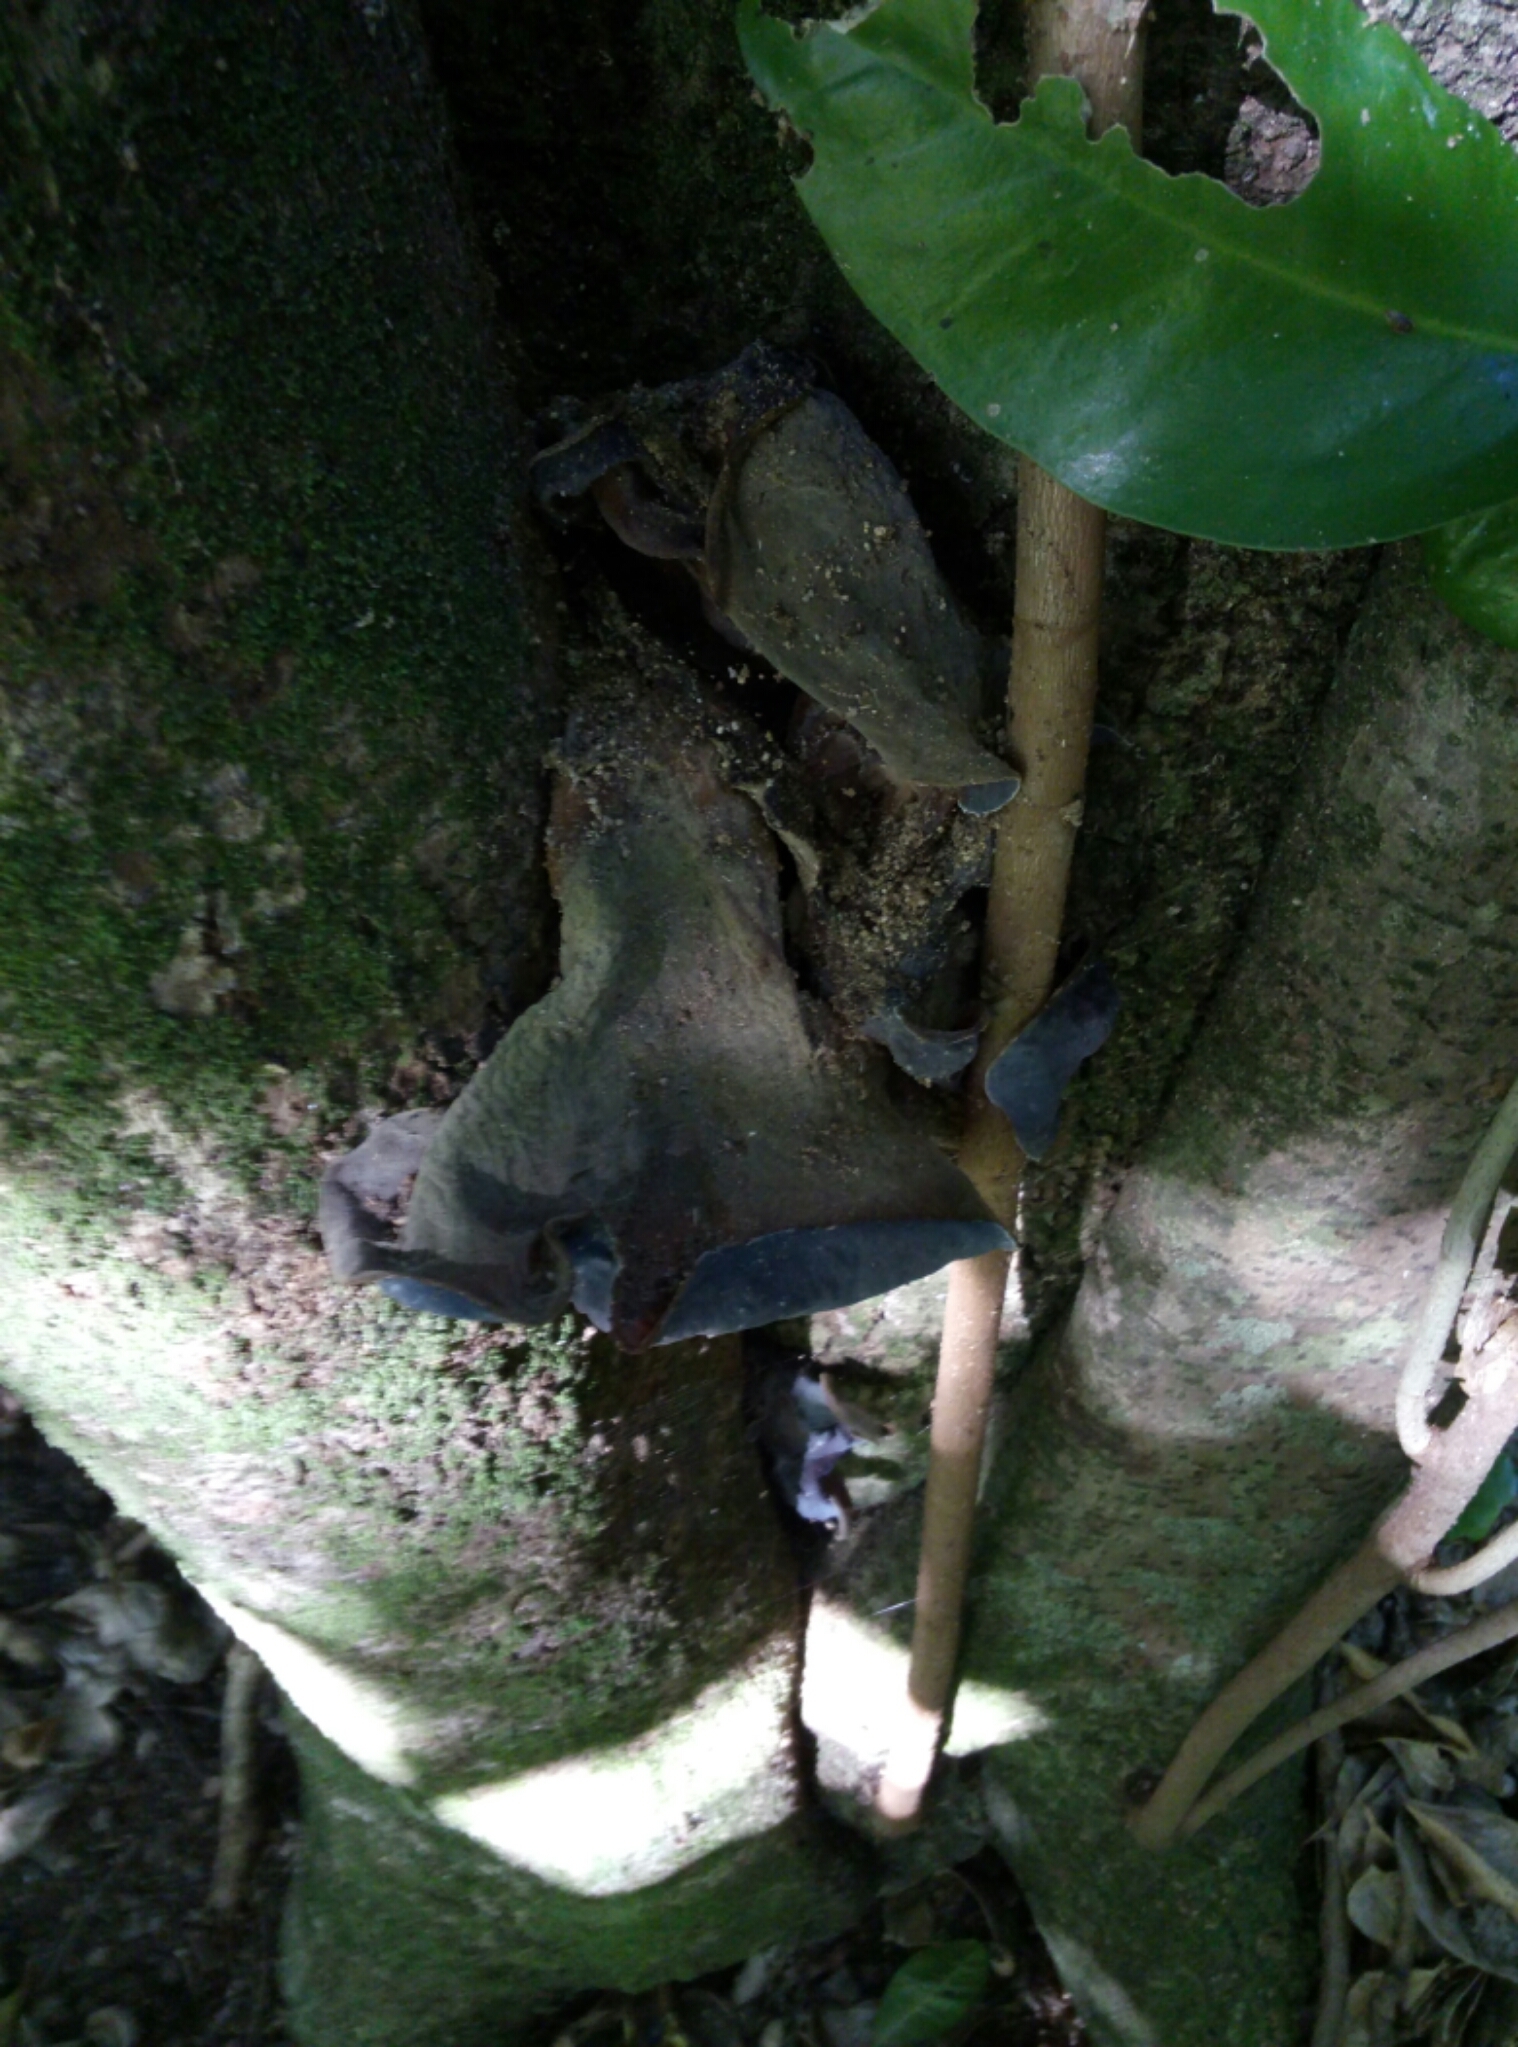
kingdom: Fungi
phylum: Basidiomycota
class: Agaricomycetes
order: Auriculariales
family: Auriculariaceae
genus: Auricularia
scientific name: Auricularia cornea
